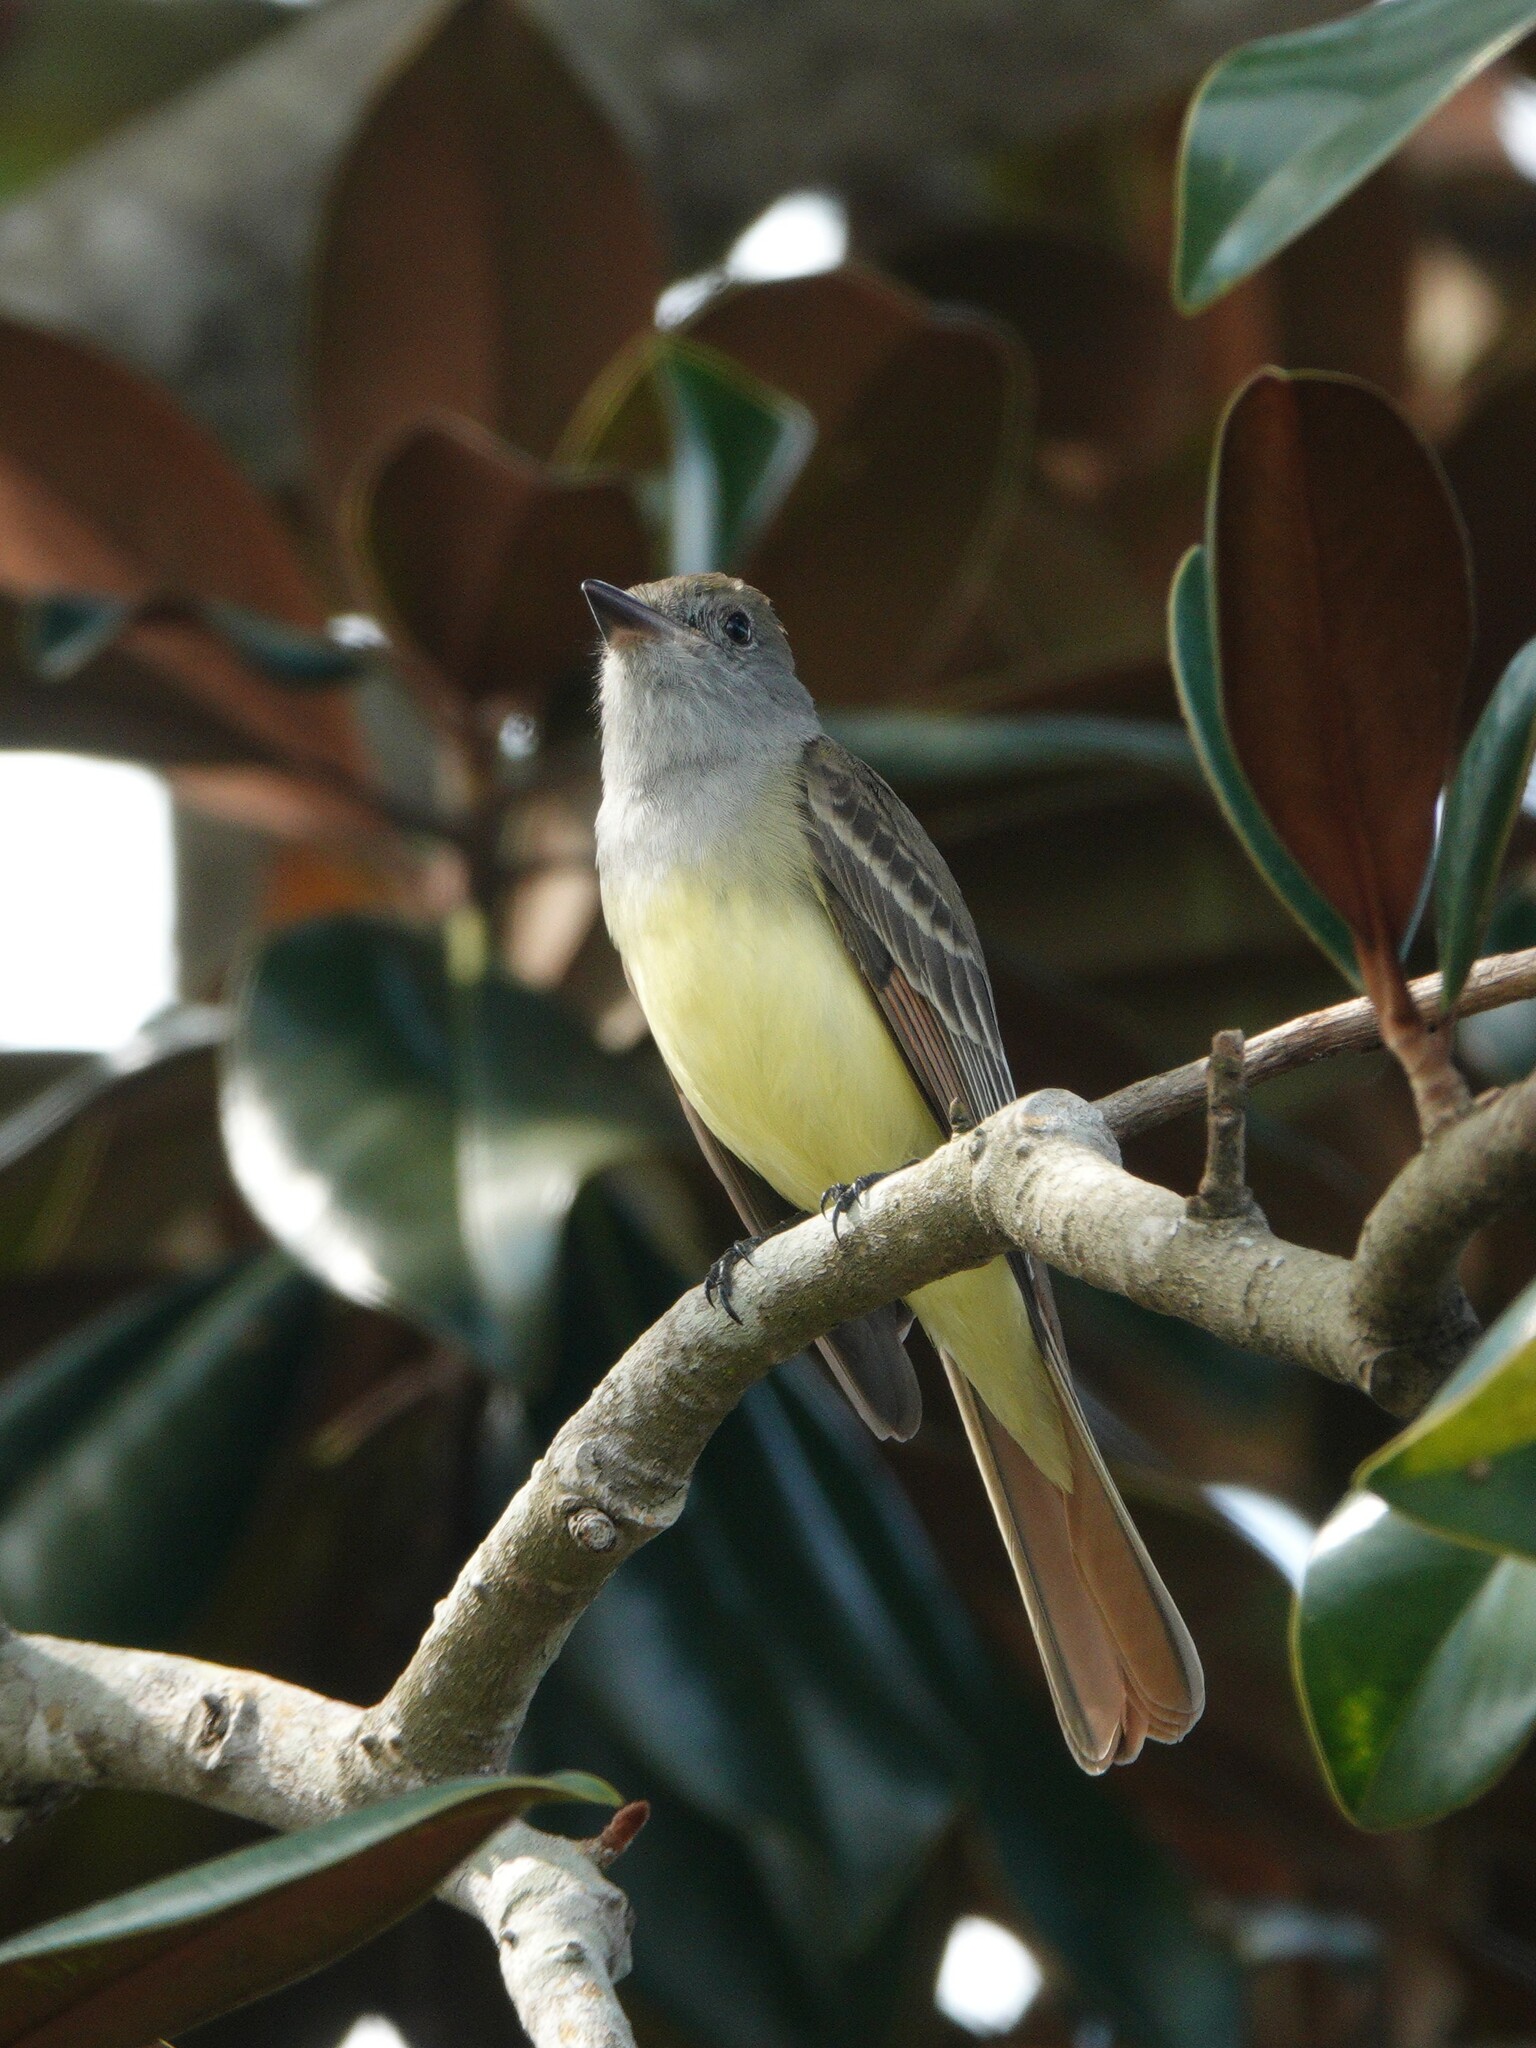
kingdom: Animalia
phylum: Chordata
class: Aves
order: Passeriformes
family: Tyrannidae
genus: Myiarchus
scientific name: Myiarchus crinitus
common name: Great crested flycatcher
